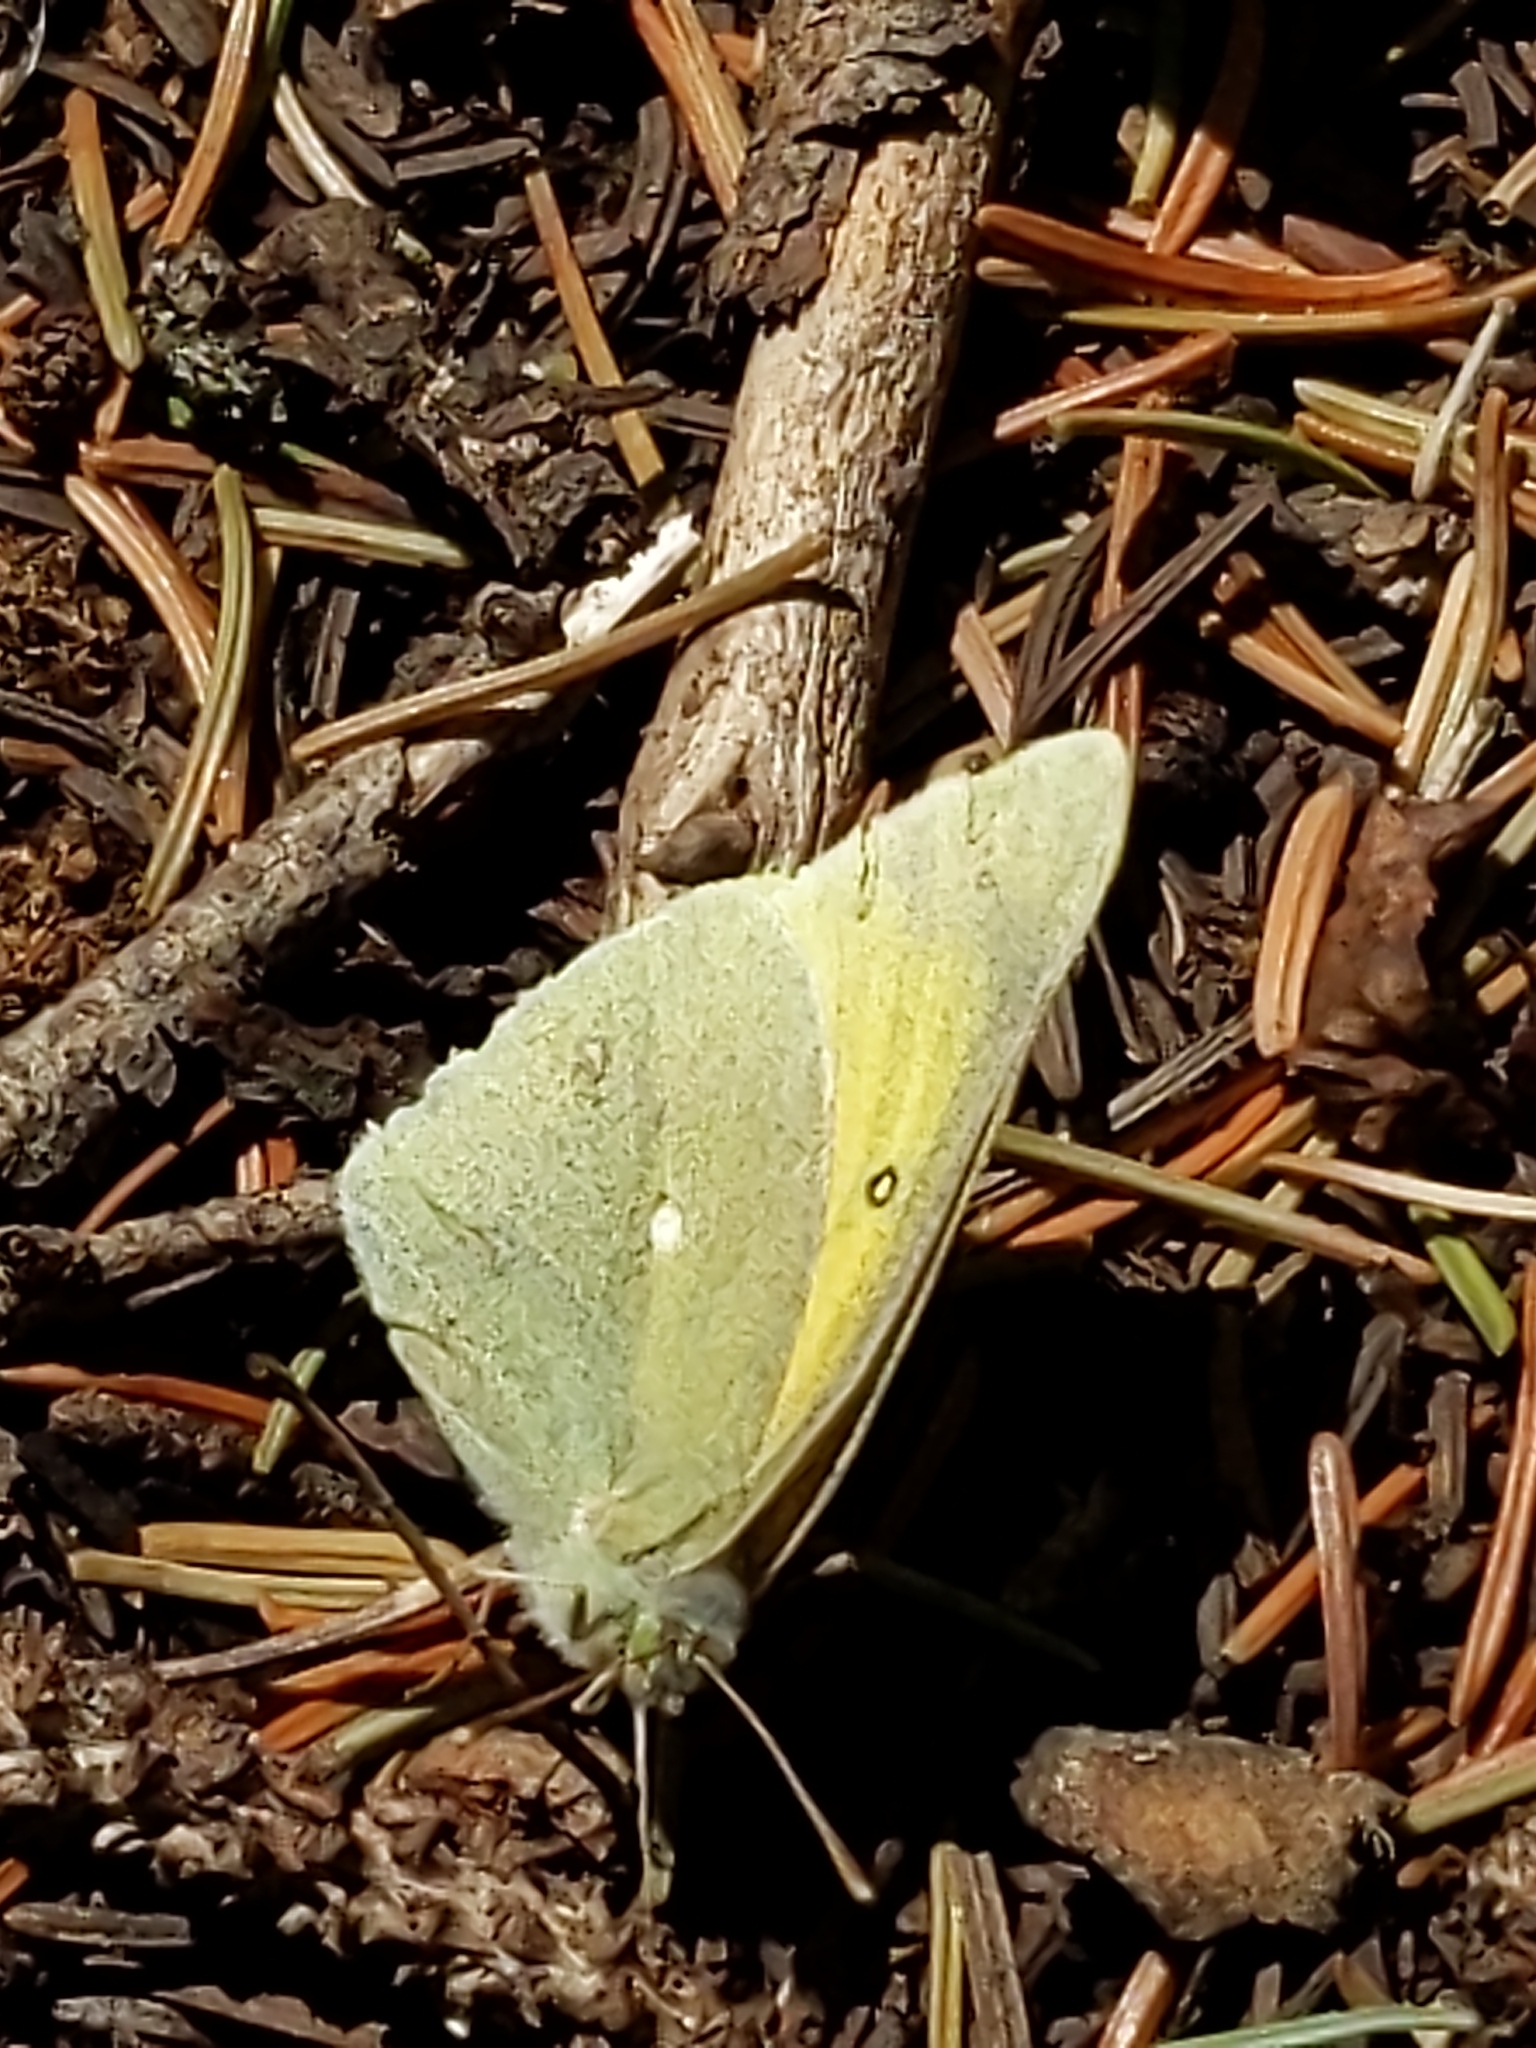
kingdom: Animalia
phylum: Arthropoda
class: Insecta
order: Lepidoptera
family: Pieridae
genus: Colias
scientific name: Colias alexandra
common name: Alexandra sulphur
